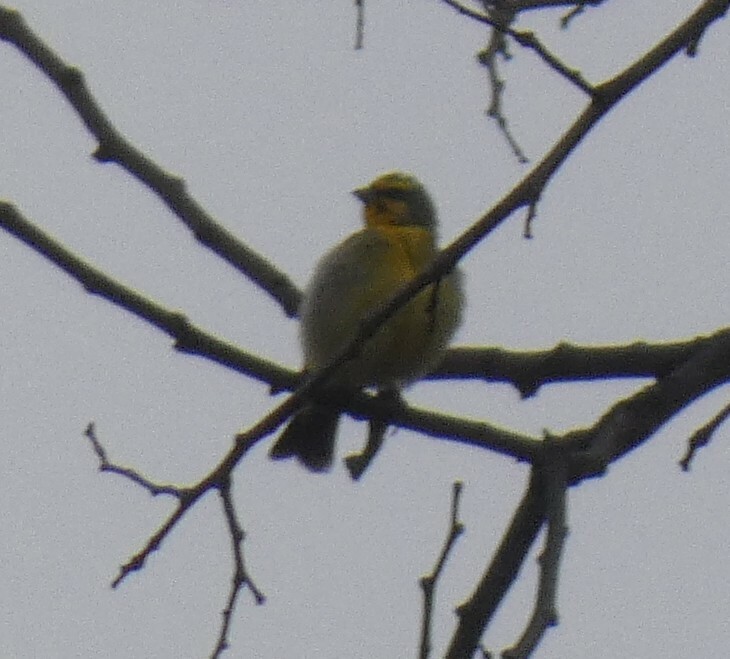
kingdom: Animalia
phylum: Chordata
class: Aves
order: Passeriformes
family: Fringillidae
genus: Crithagra
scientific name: Crithagra mozambica
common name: Yellow-fronted canary
